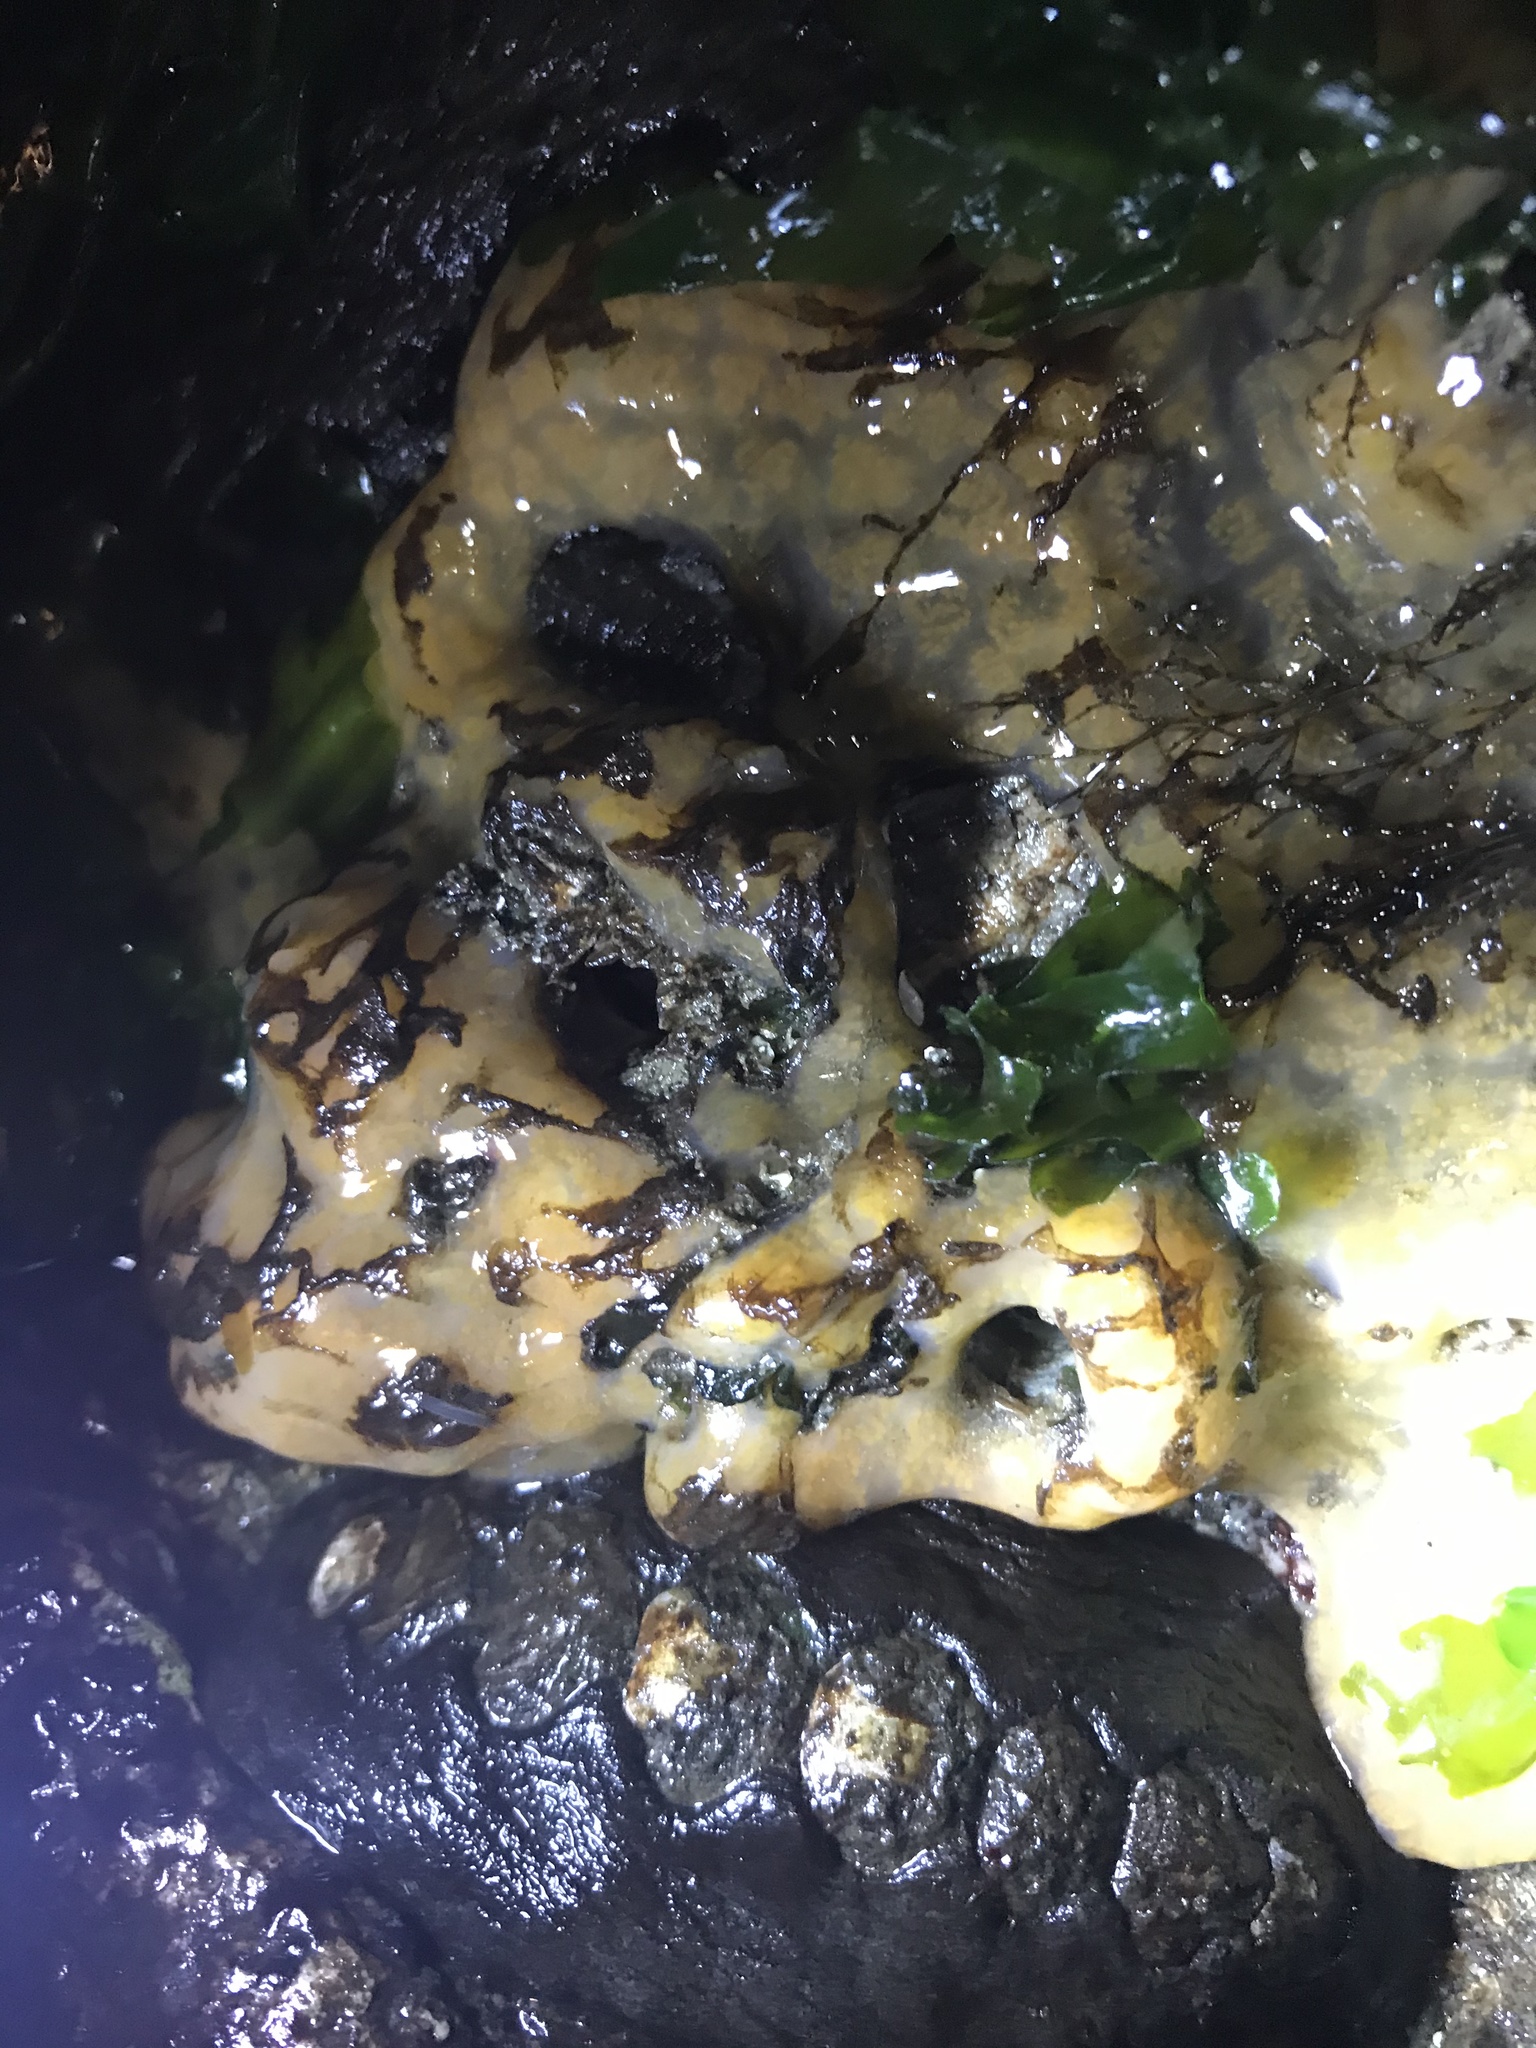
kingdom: Animalia
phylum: Chordata
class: Ascidiacea
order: Aplousobranchia
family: Polyclinidae
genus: Aplidium
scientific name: Aplidium californicum
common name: Sea pork
